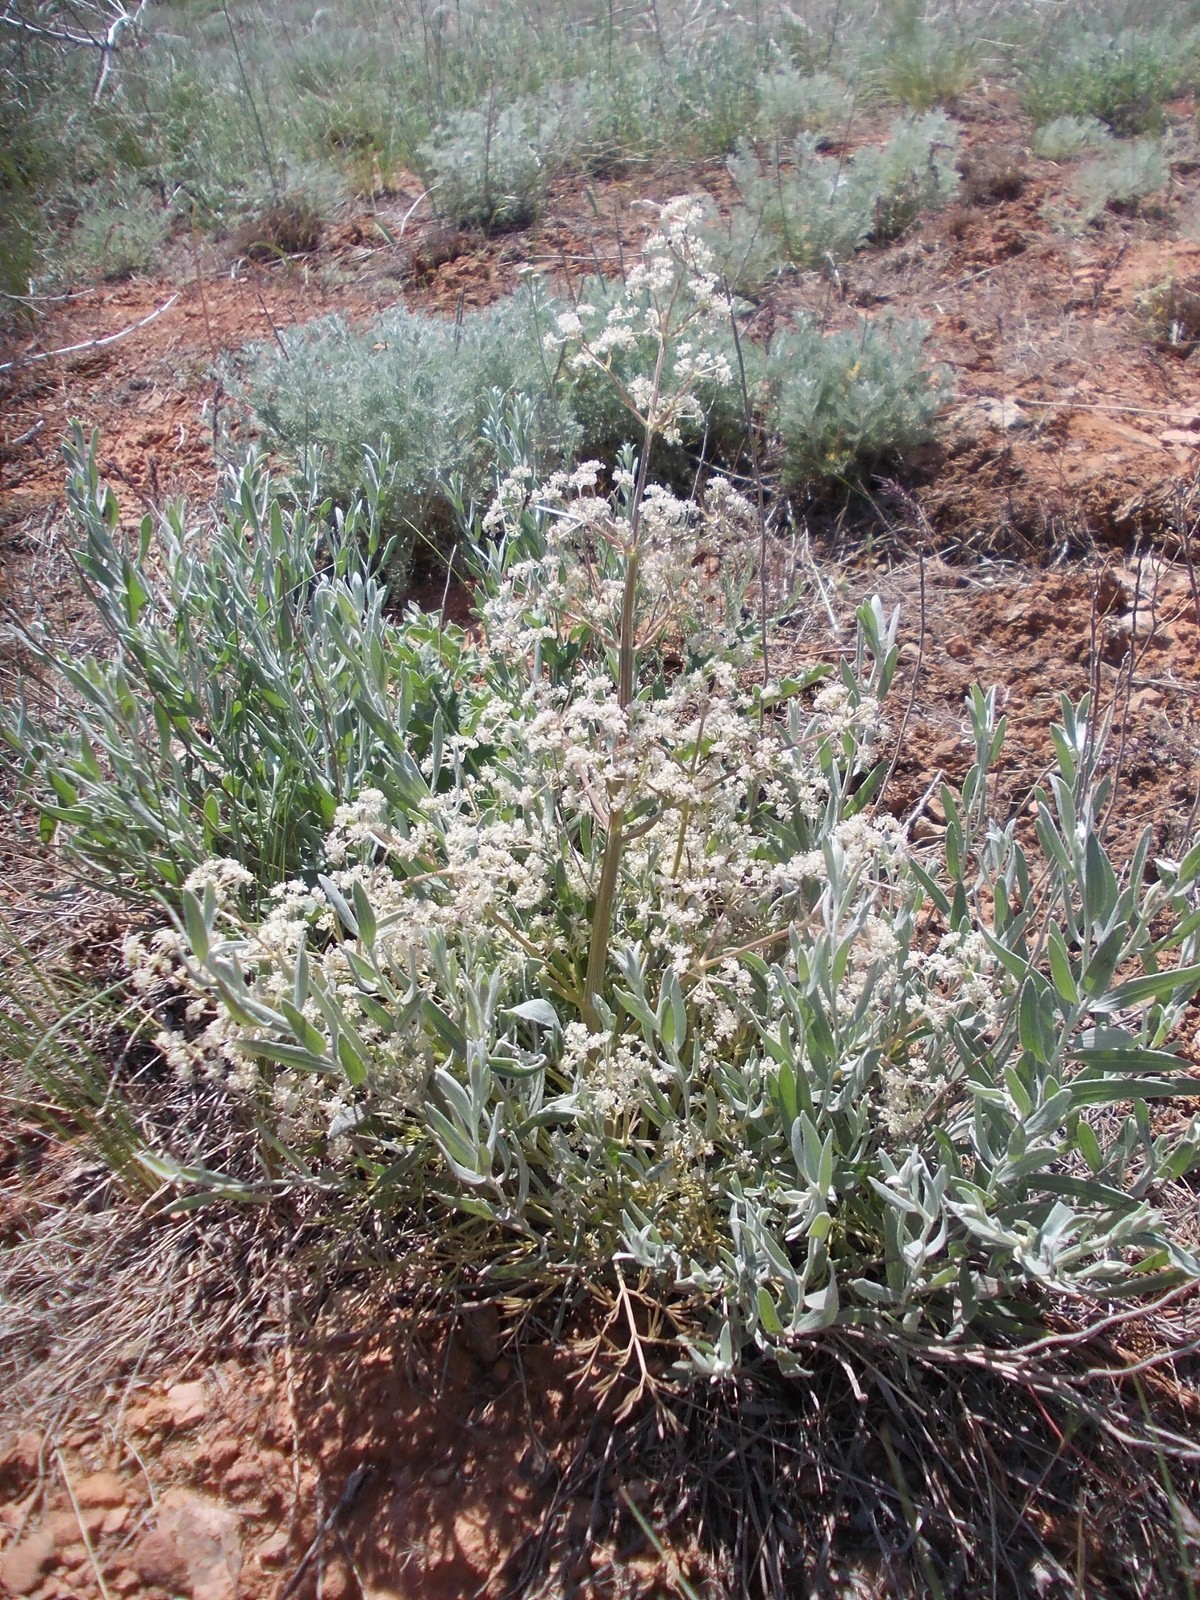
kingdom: Plantae
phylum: Tracheophyta
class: Magnoliopsida
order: Apiales
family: Apiaceae
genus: Trinia
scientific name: Trinia hispida
